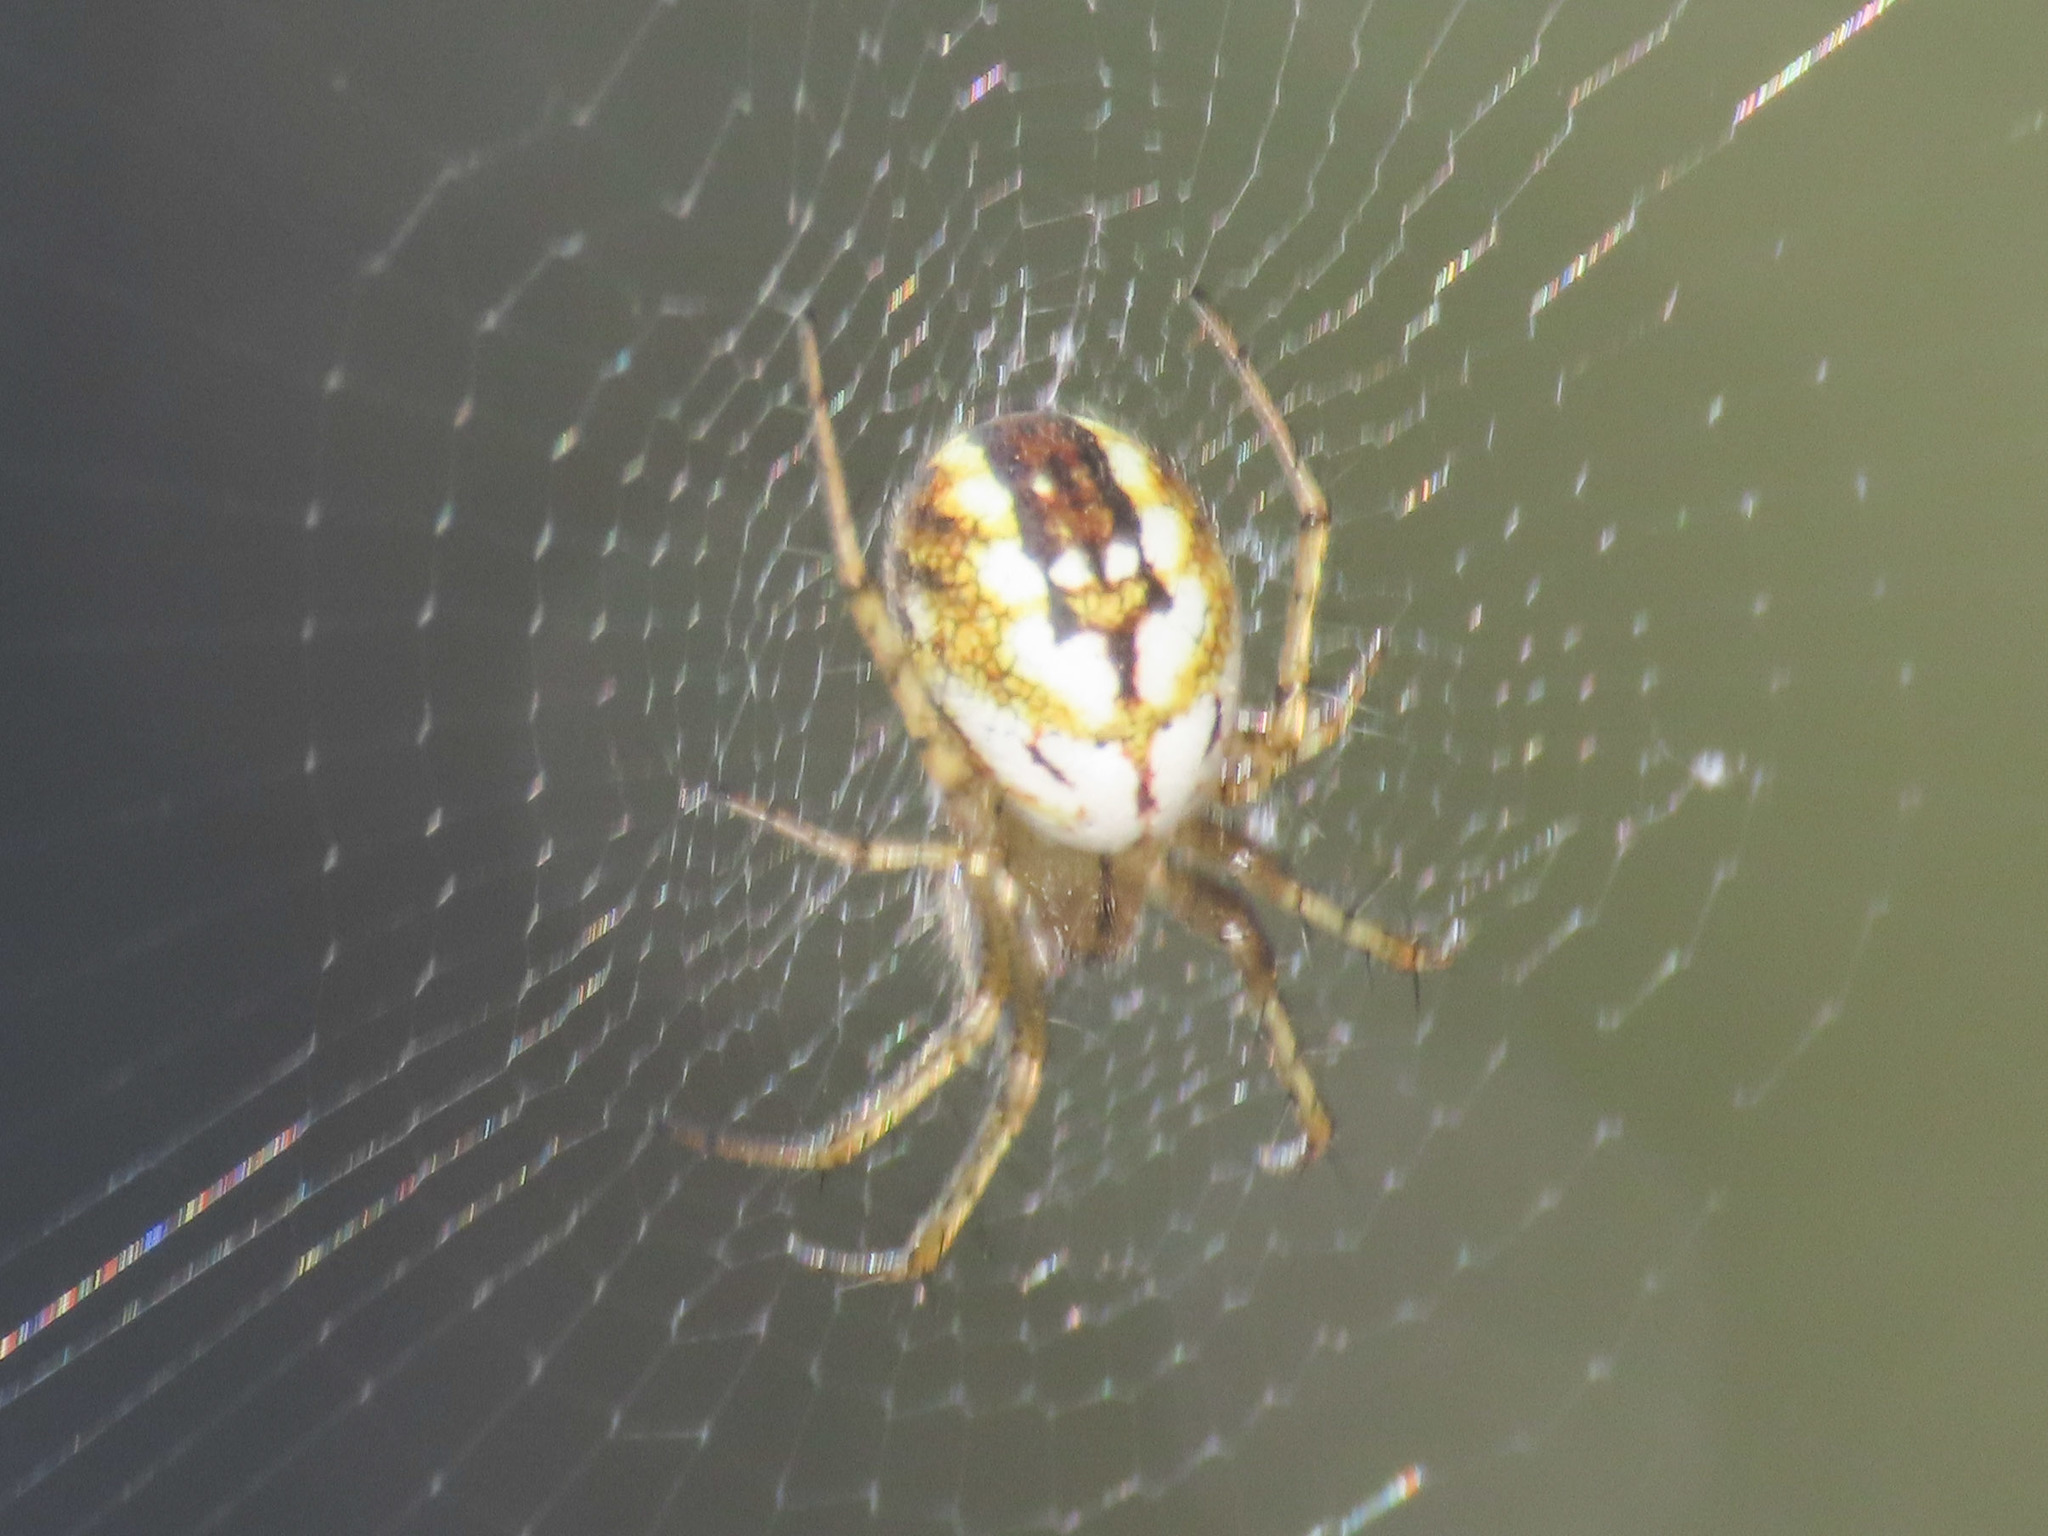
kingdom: Animalia
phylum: Arthropoda
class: Arachnida
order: Araneae
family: Araneidae
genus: Mangora
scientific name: Mangora acalypha
